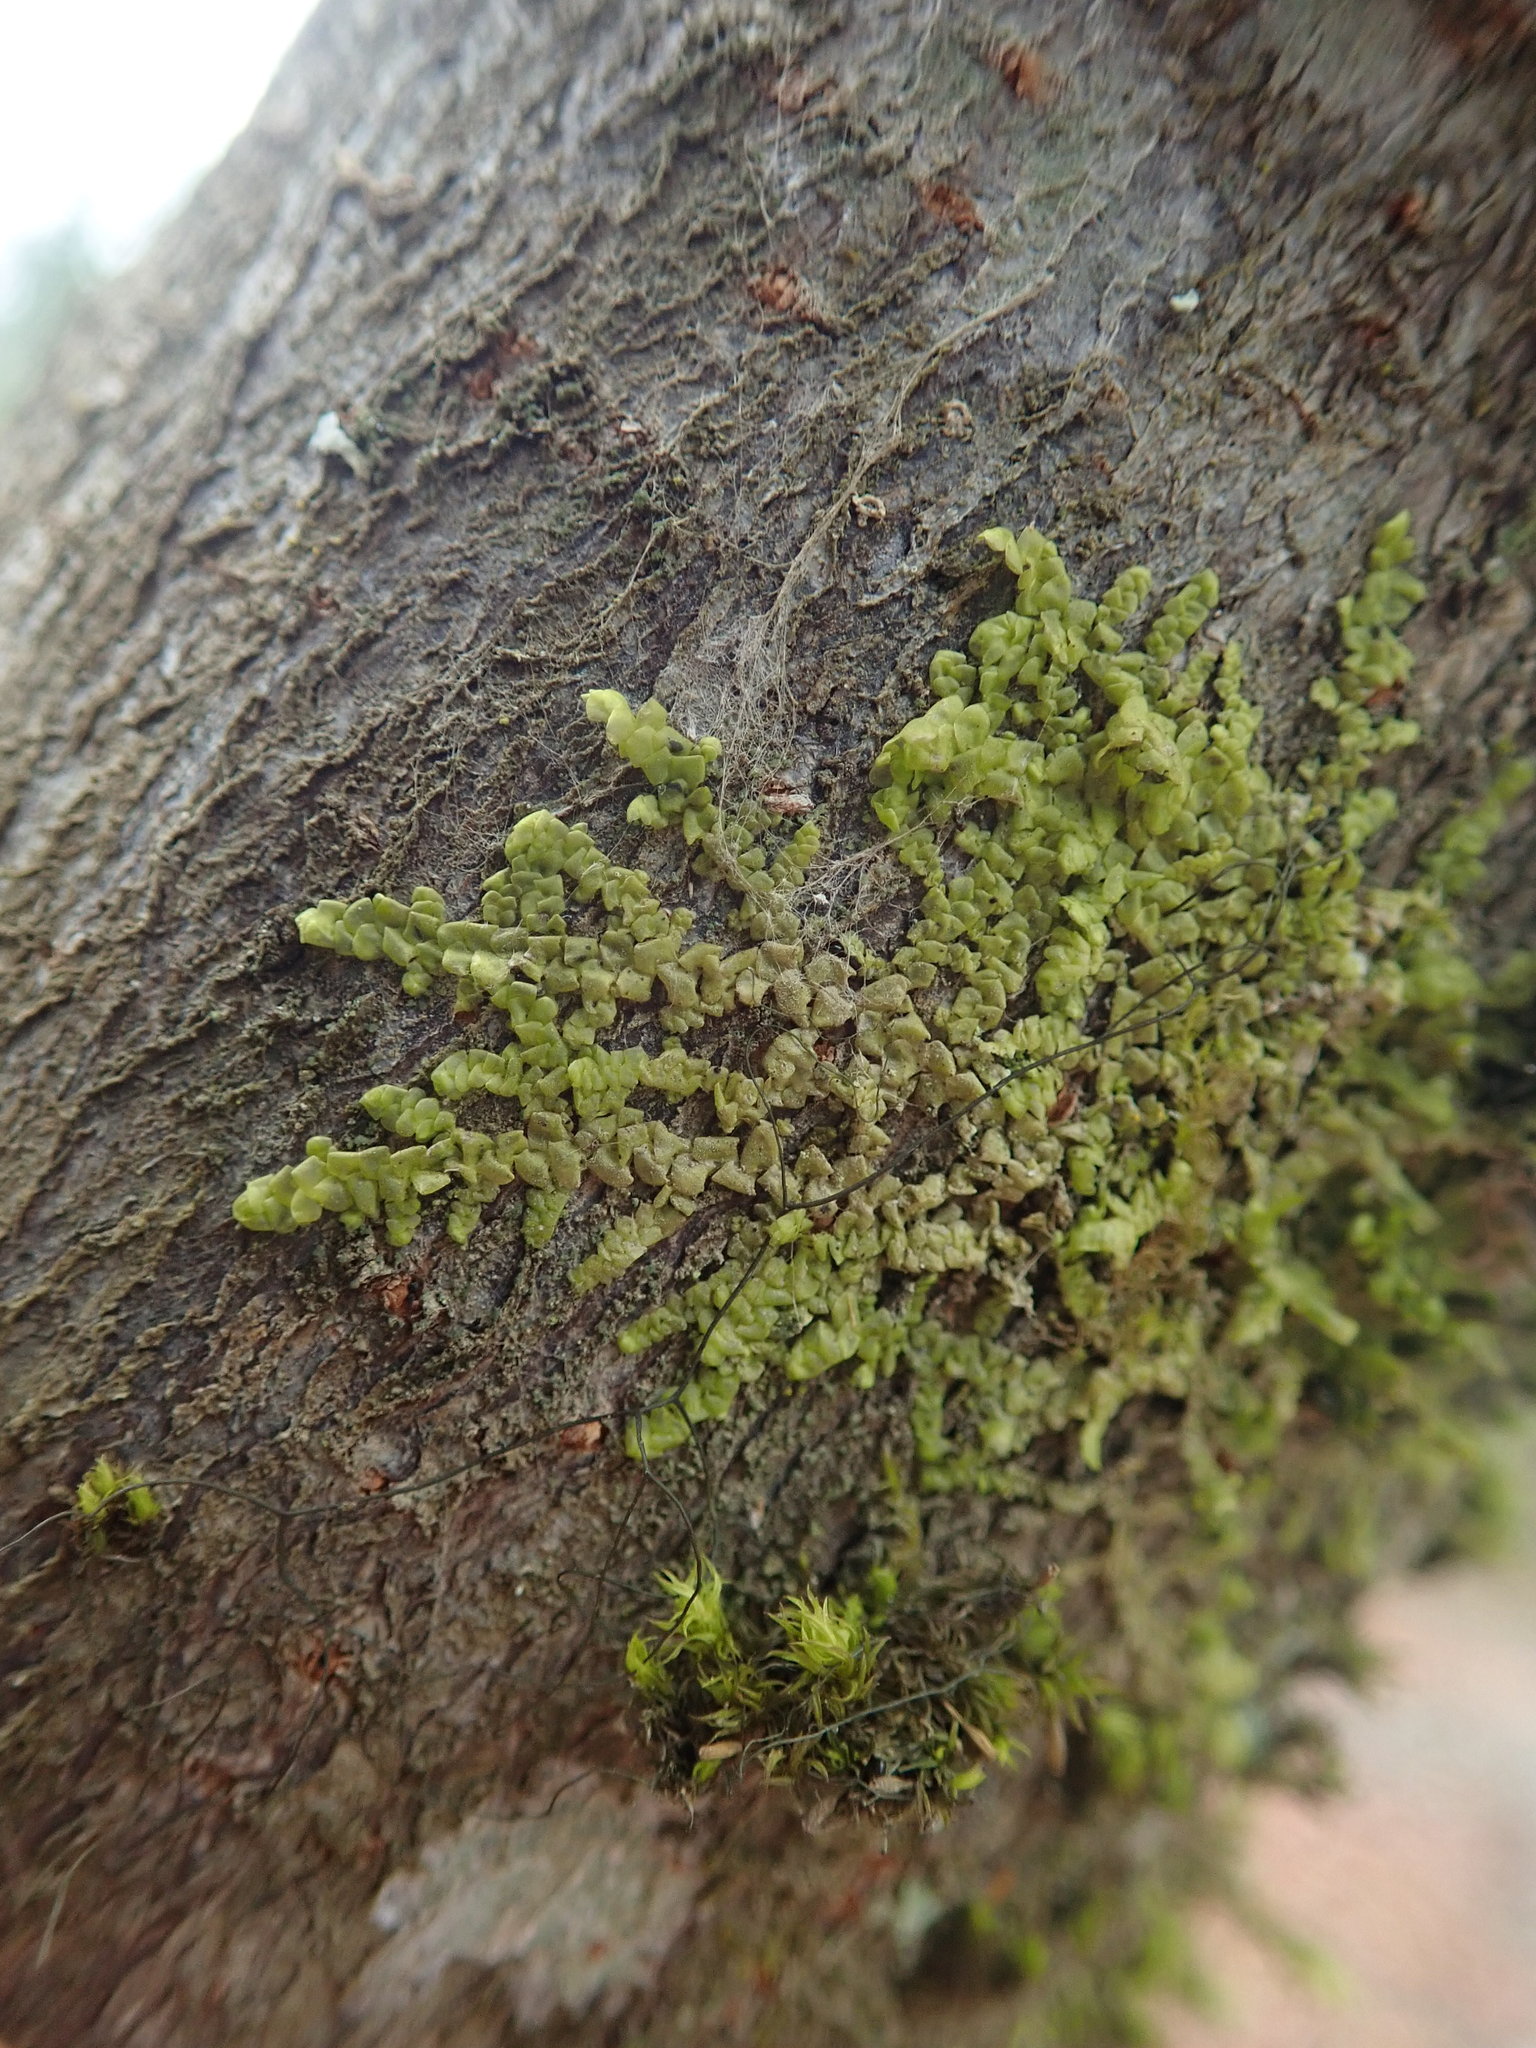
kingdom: Plantae
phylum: Marchantiophyta
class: Jungermanniopsida
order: Porellales
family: Radulaceae
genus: Radula
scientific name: Radula complanata
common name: Flat-leaved scalewort
